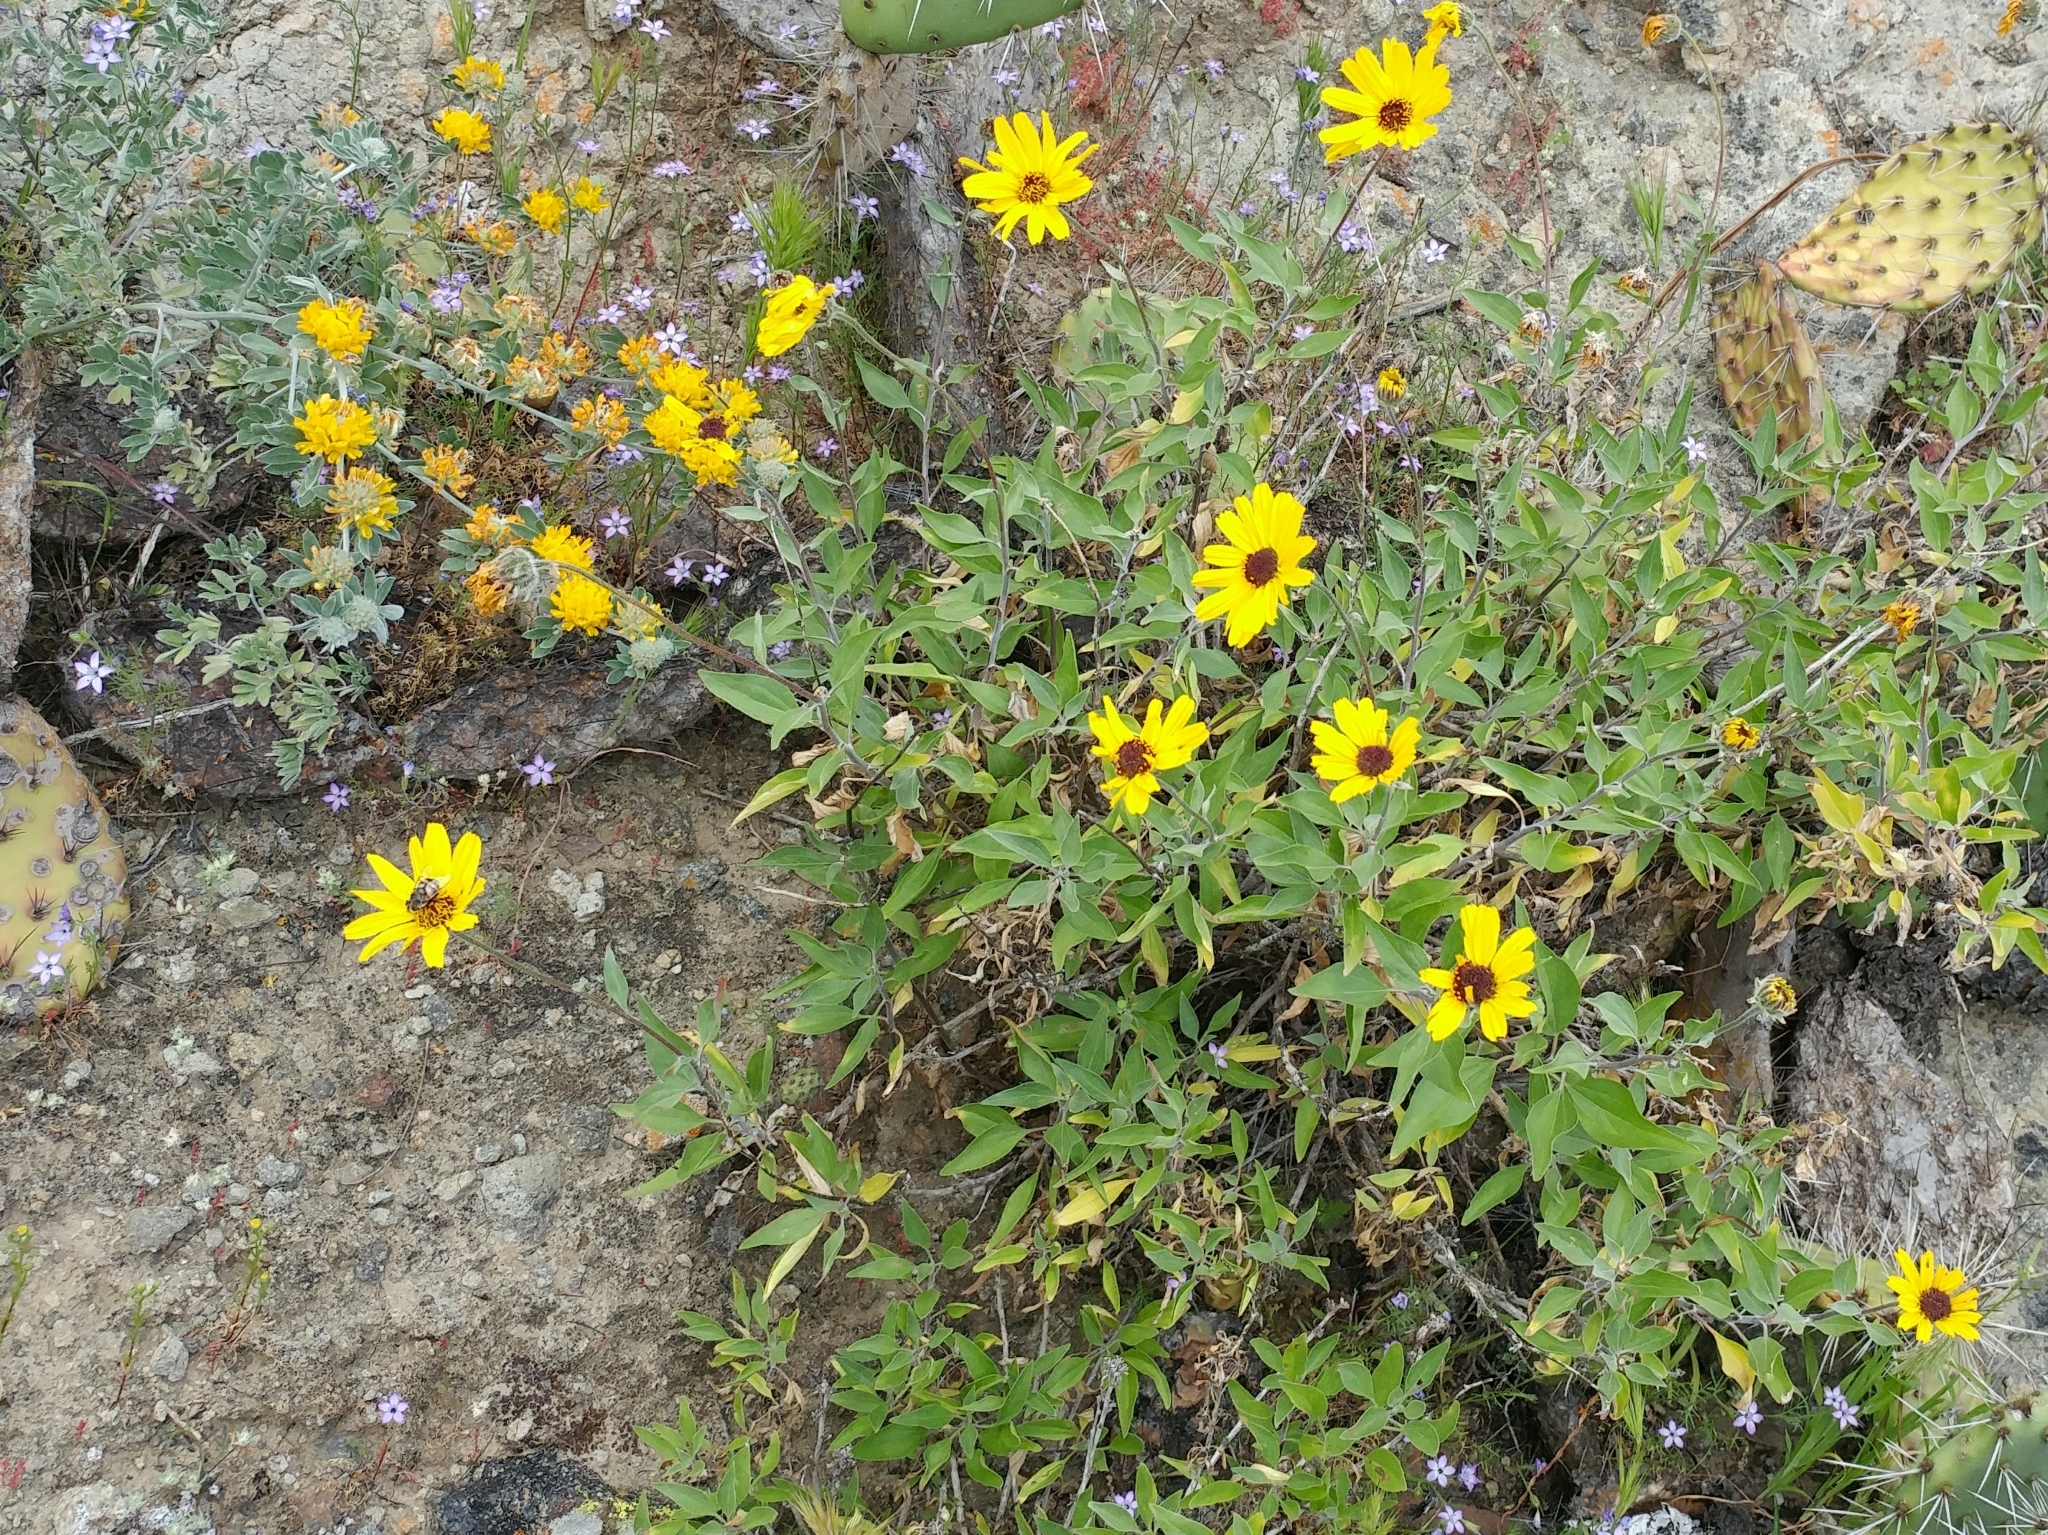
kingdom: Plantae
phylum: Tracheophyta
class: Magnoliopsida
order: Asterales
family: Asteraceae
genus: Encelia
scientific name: Encelia californica
